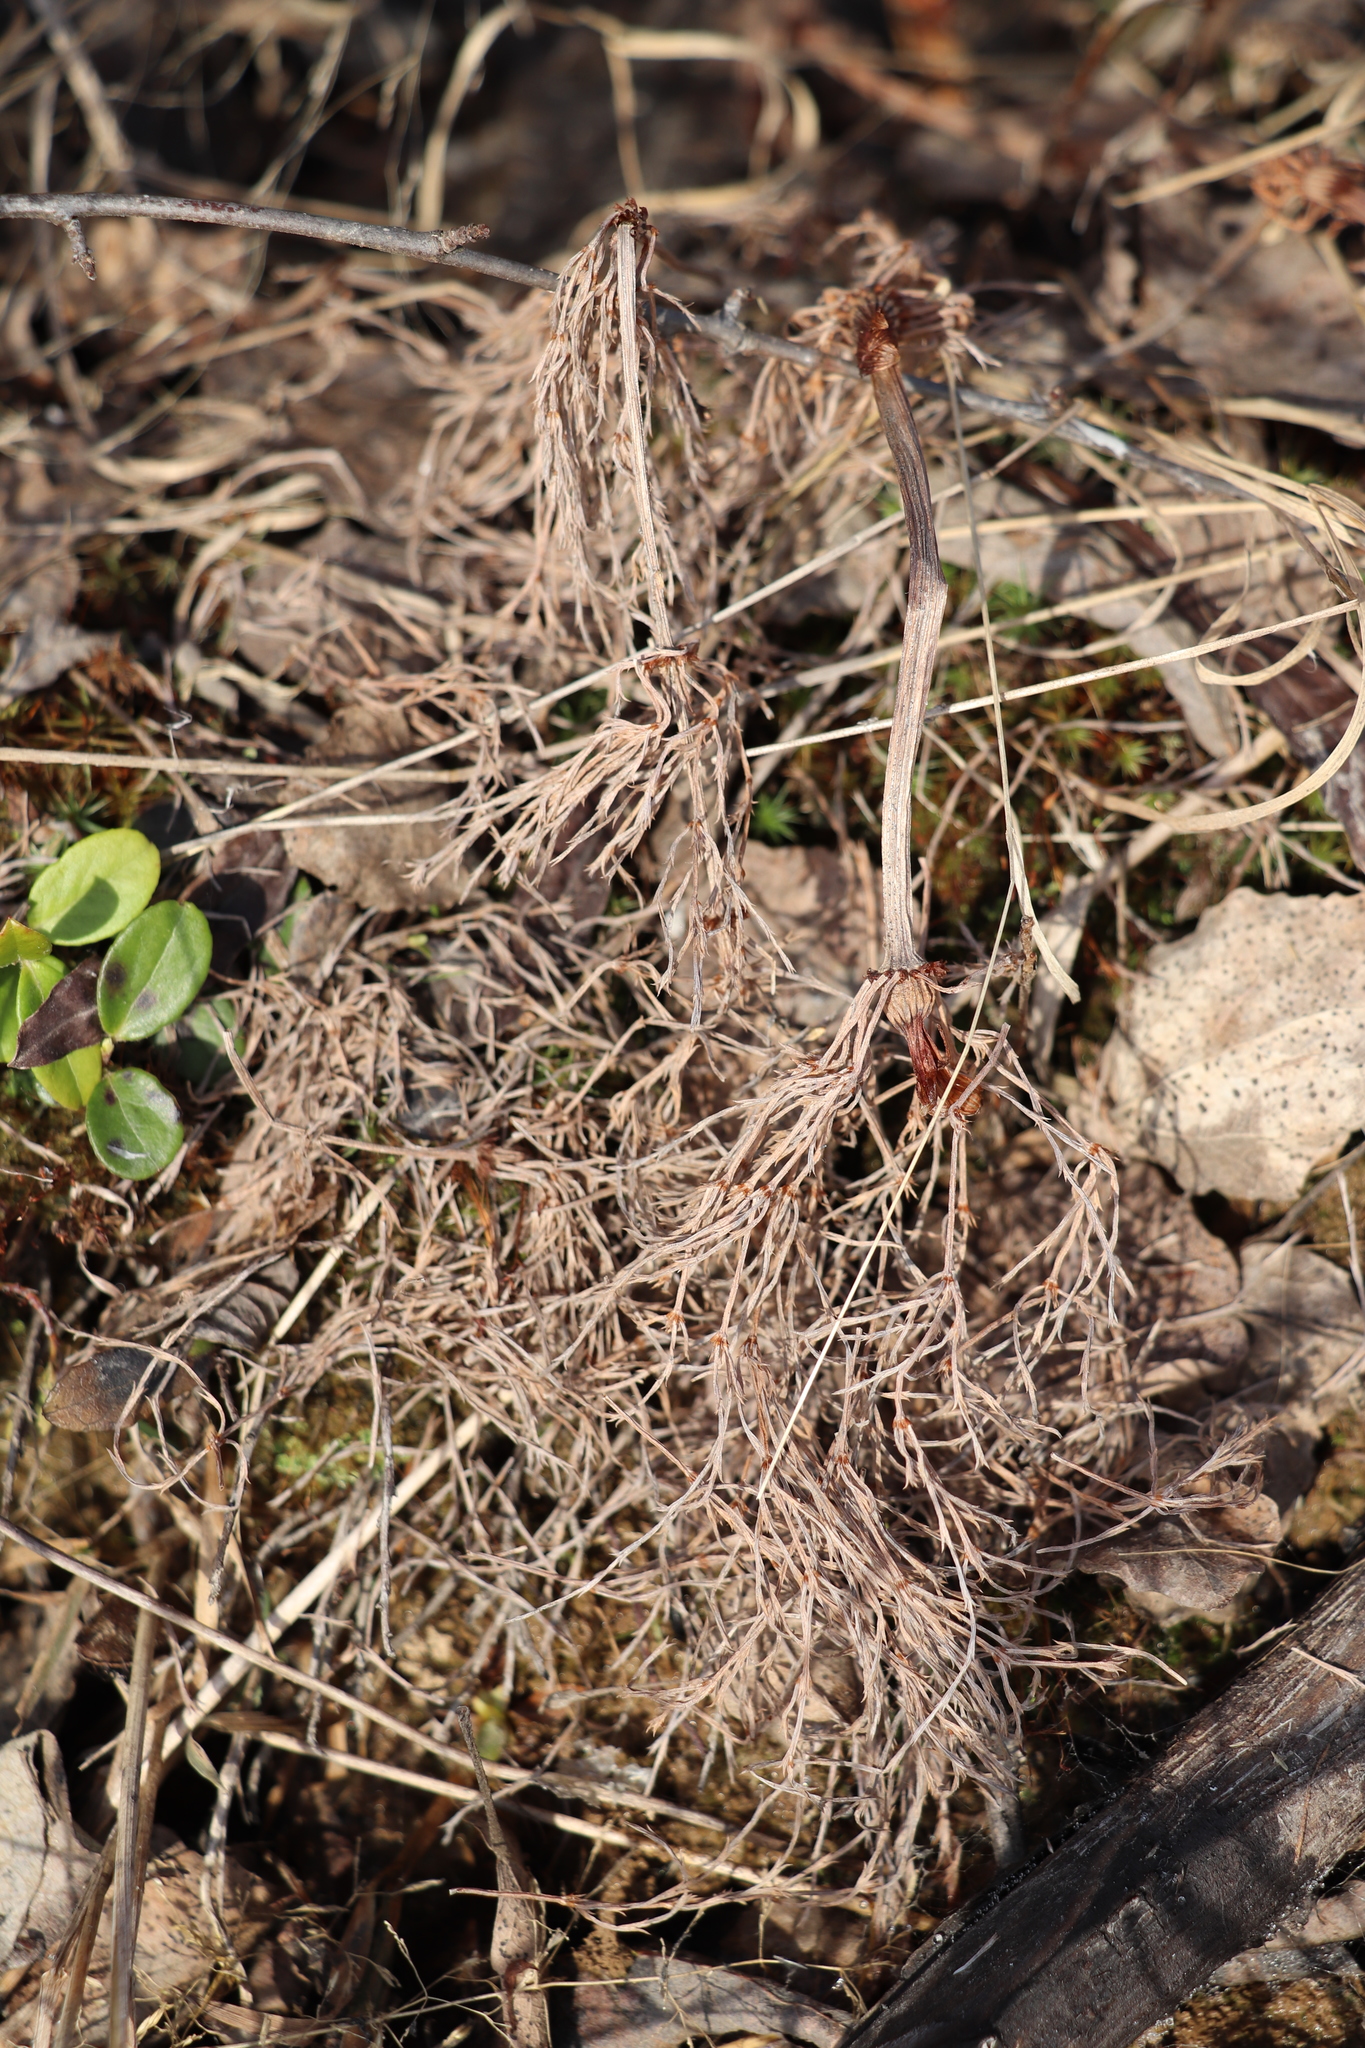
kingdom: Plantae
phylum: Tracheophyta
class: Polypodiopsida
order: Equisetales
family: Equisetaceae
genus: Equisetum
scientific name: Equisetum sylvaticum
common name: Wood horsetail
